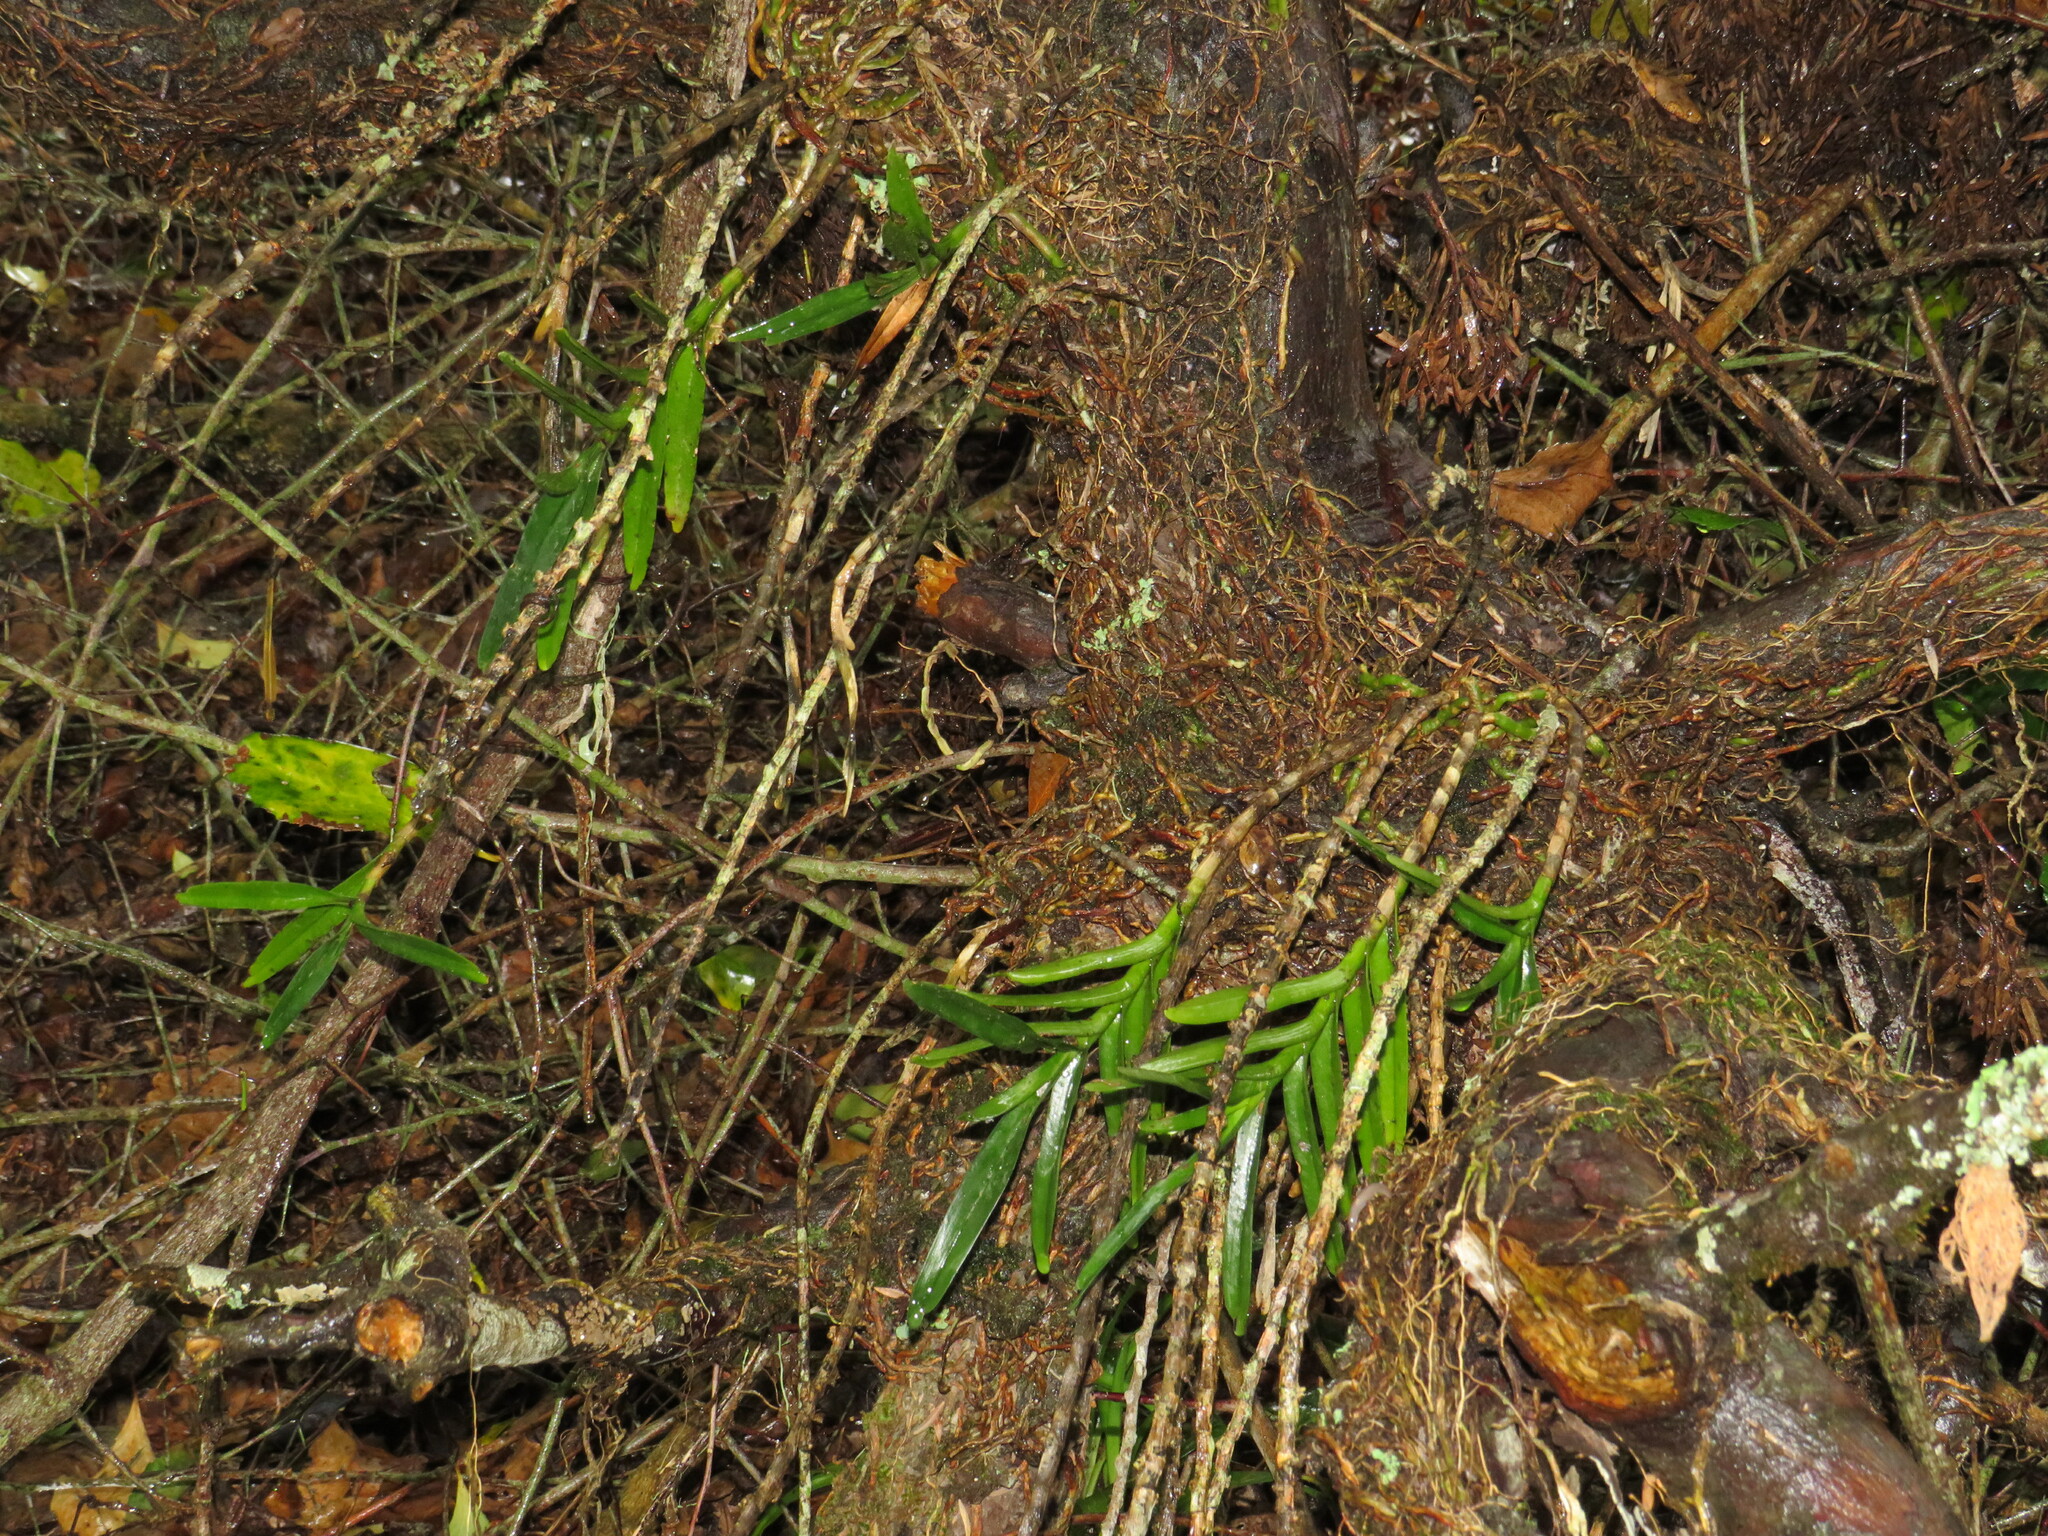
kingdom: Plantae
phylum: Tracheophyta
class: Liliopsida
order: Asparagales
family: Orchidaceae
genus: Tridactyle
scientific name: Tridactyle bicaudata
